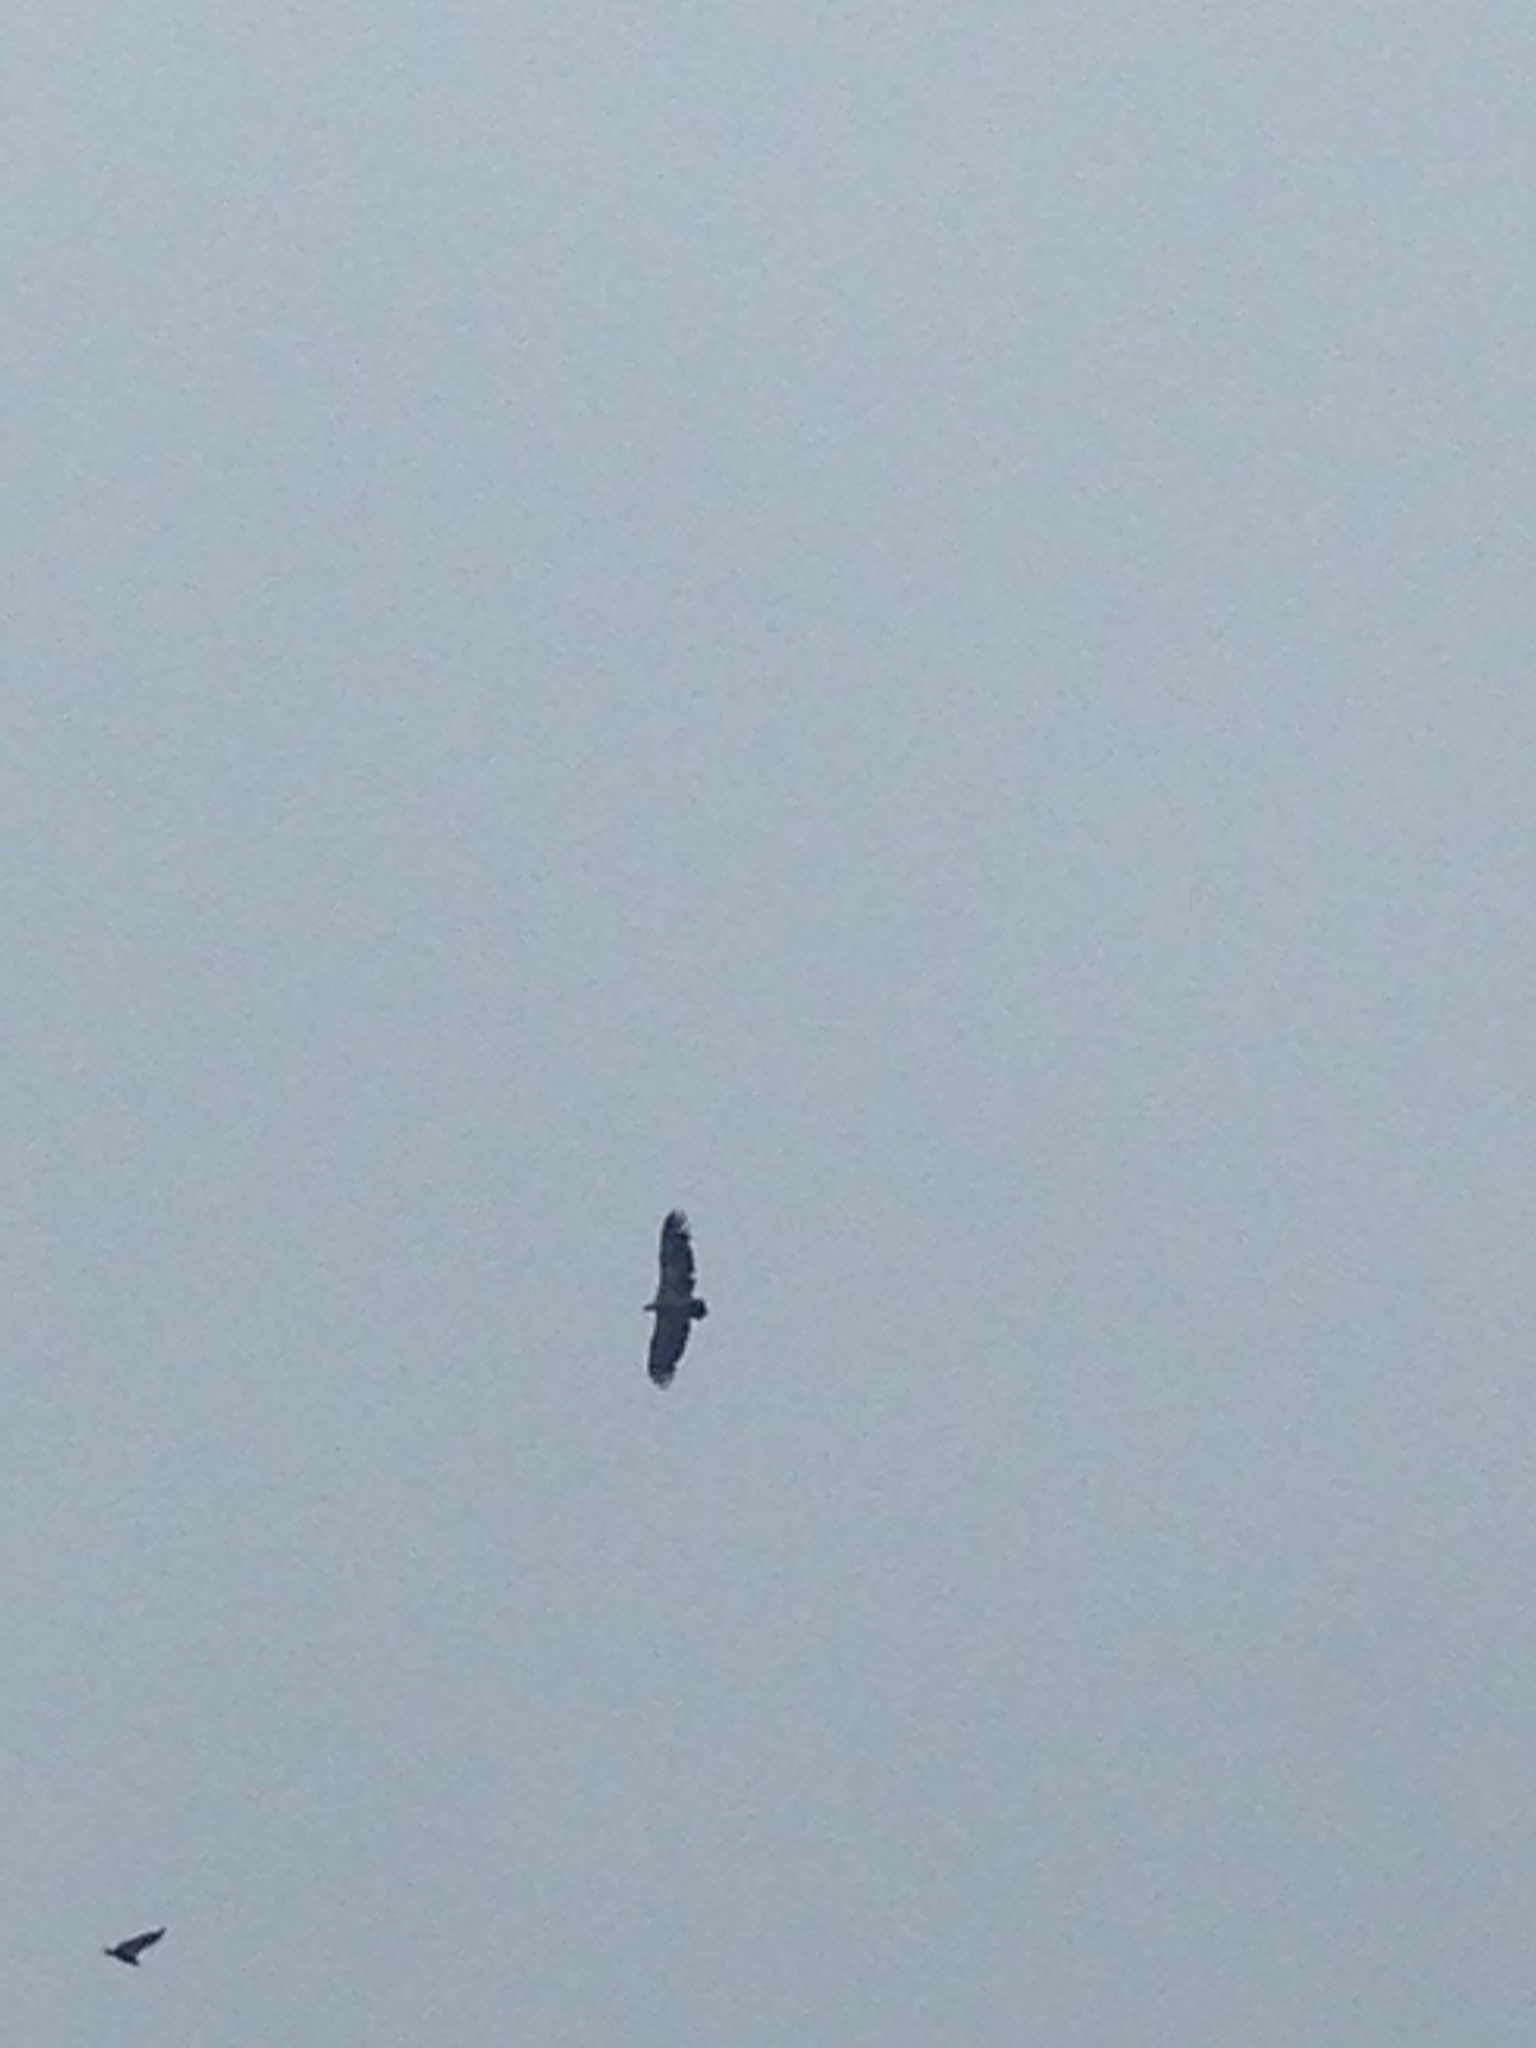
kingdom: Animalia
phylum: Chordata
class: Aves
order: Accipitriformes
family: Accipitridae
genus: Gyps
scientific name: Gyps fulvus
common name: Griffon vulture
